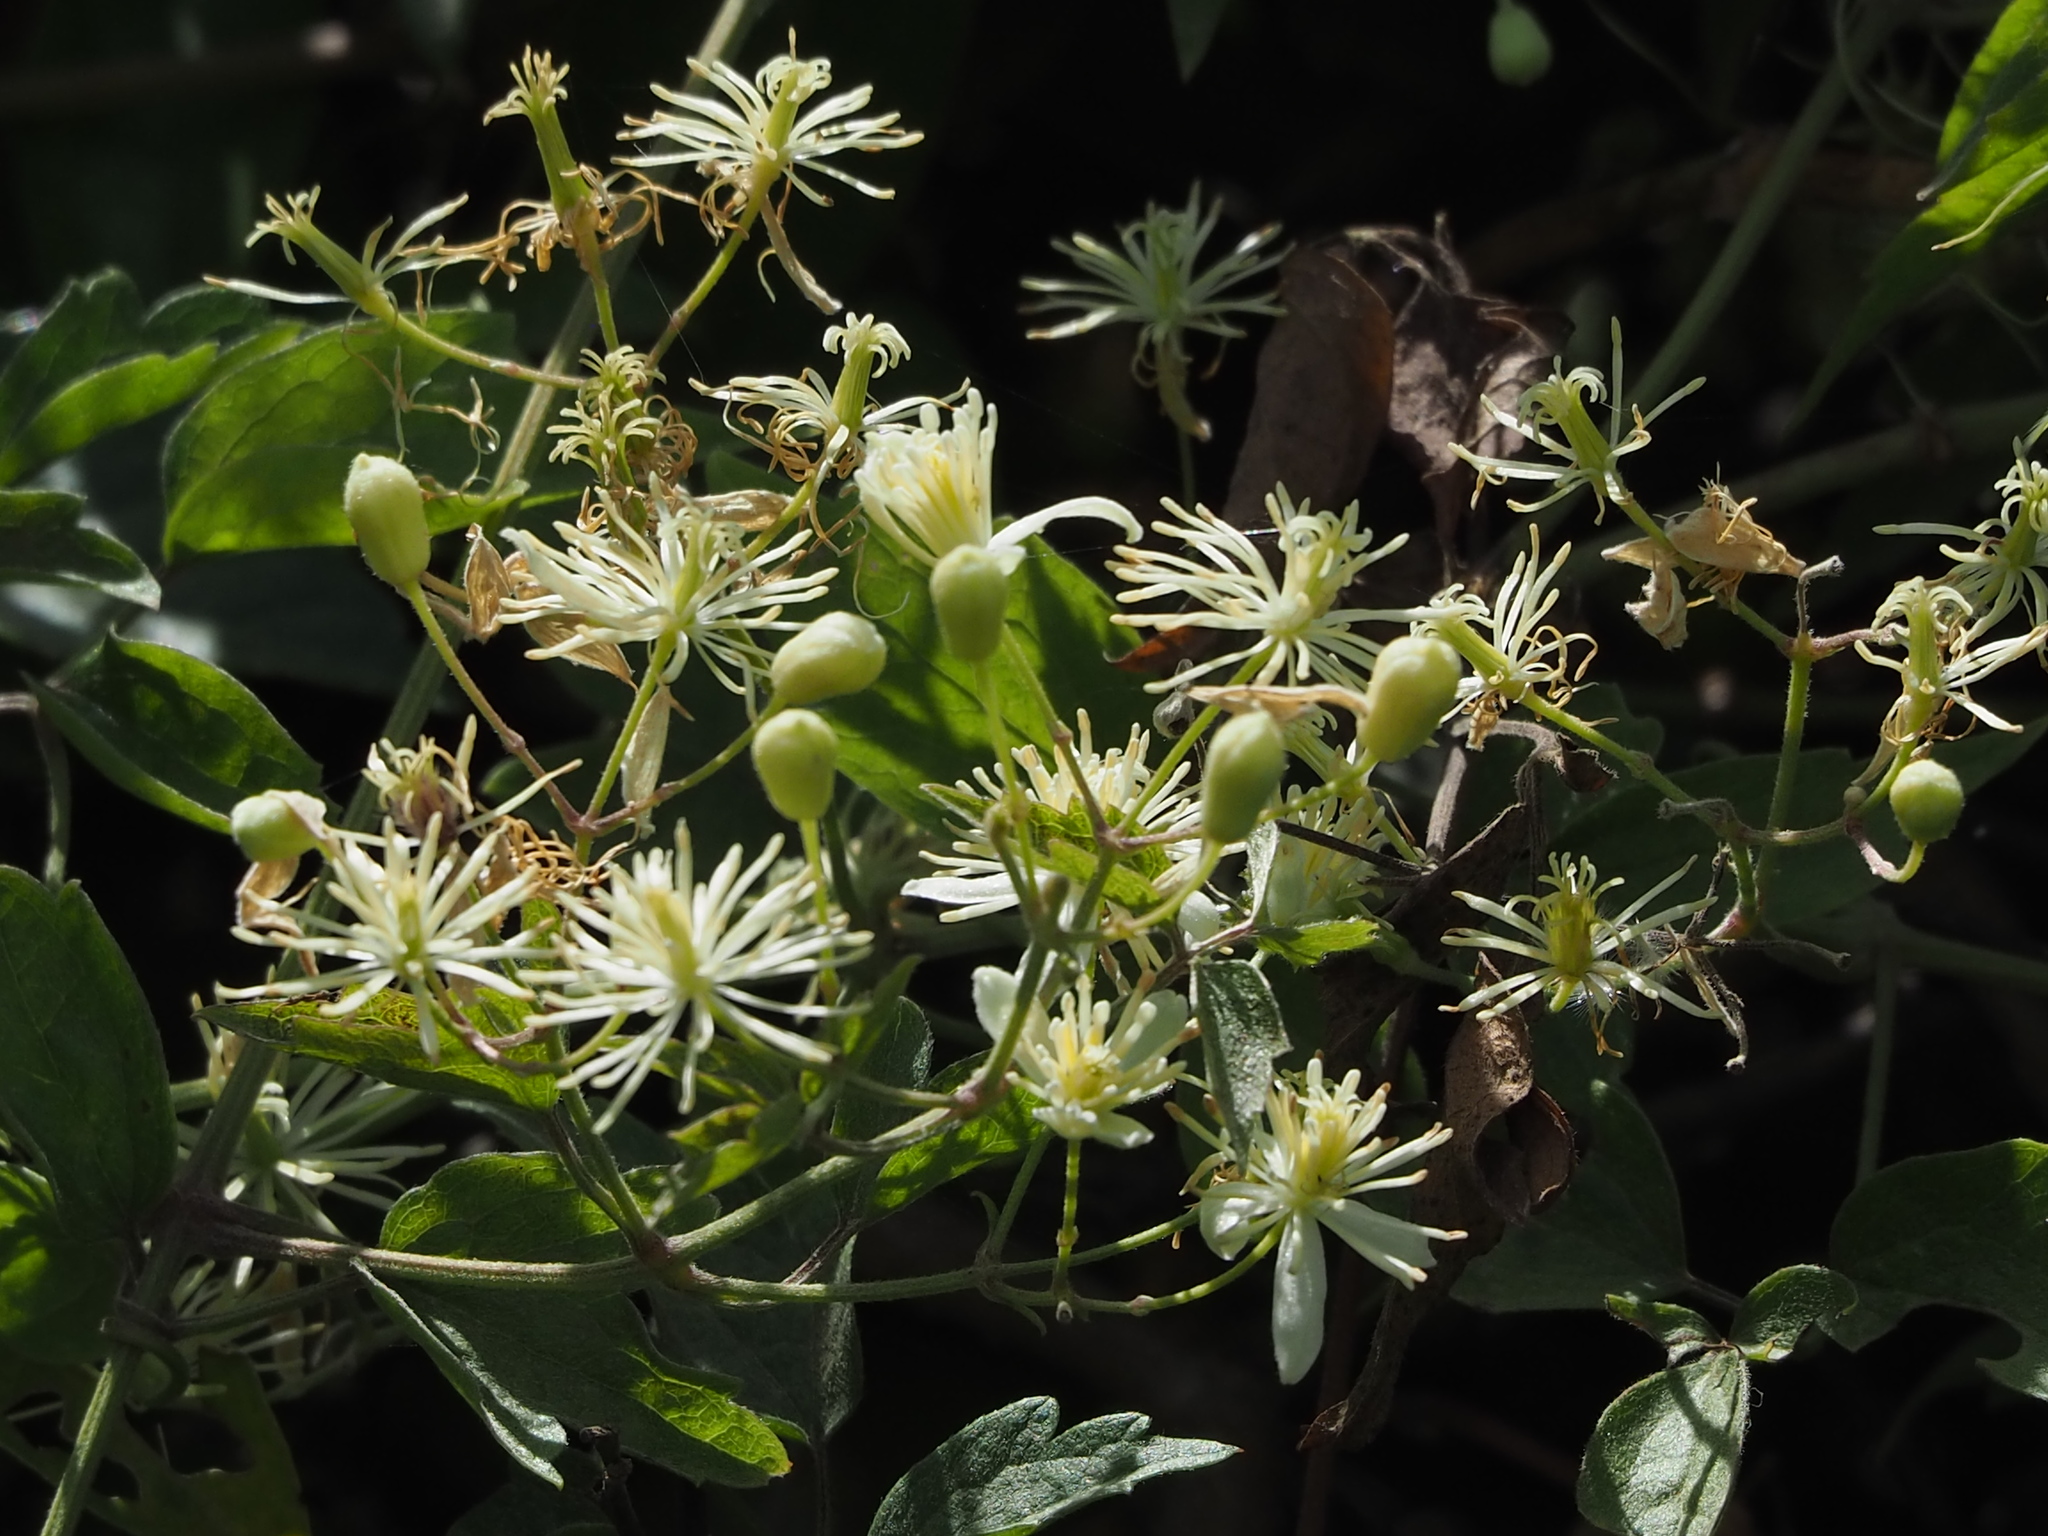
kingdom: Plantae
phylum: Tracheophyta
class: Magnoliopsida
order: Ranunculales
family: Ranunculaceae
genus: Clematis
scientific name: Clematis grata
